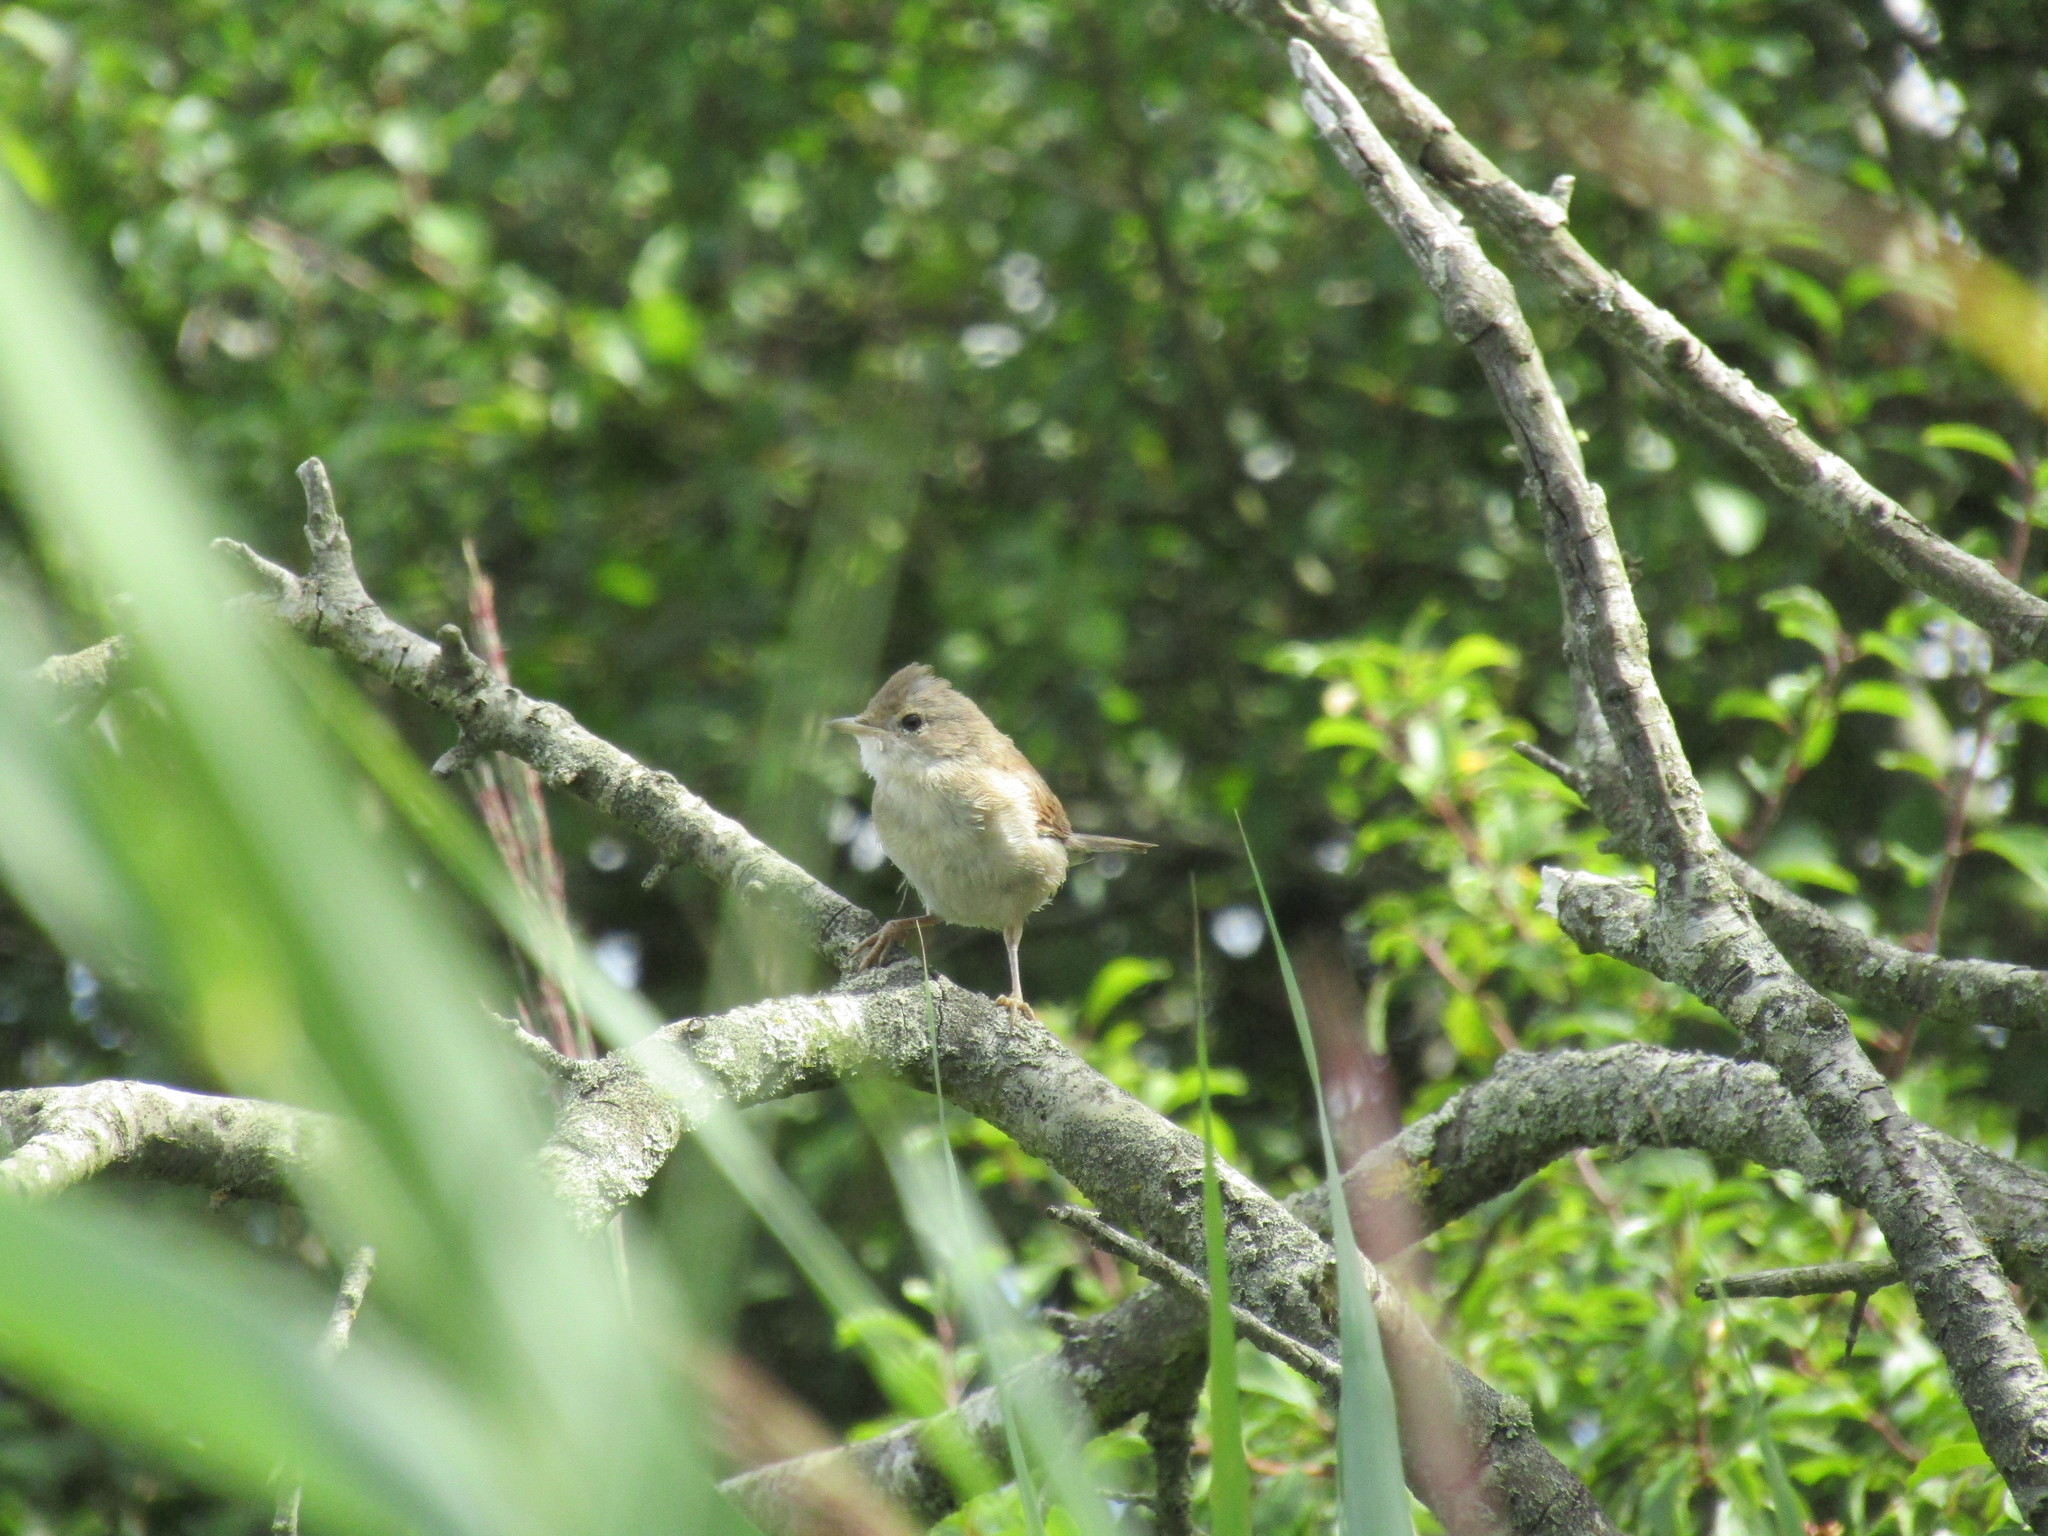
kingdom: Animalia
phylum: Chordata
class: Aves
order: Passeriformes
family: Sylviidae
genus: Sylvia
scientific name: Sylvia communis
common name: Common whitethroat
